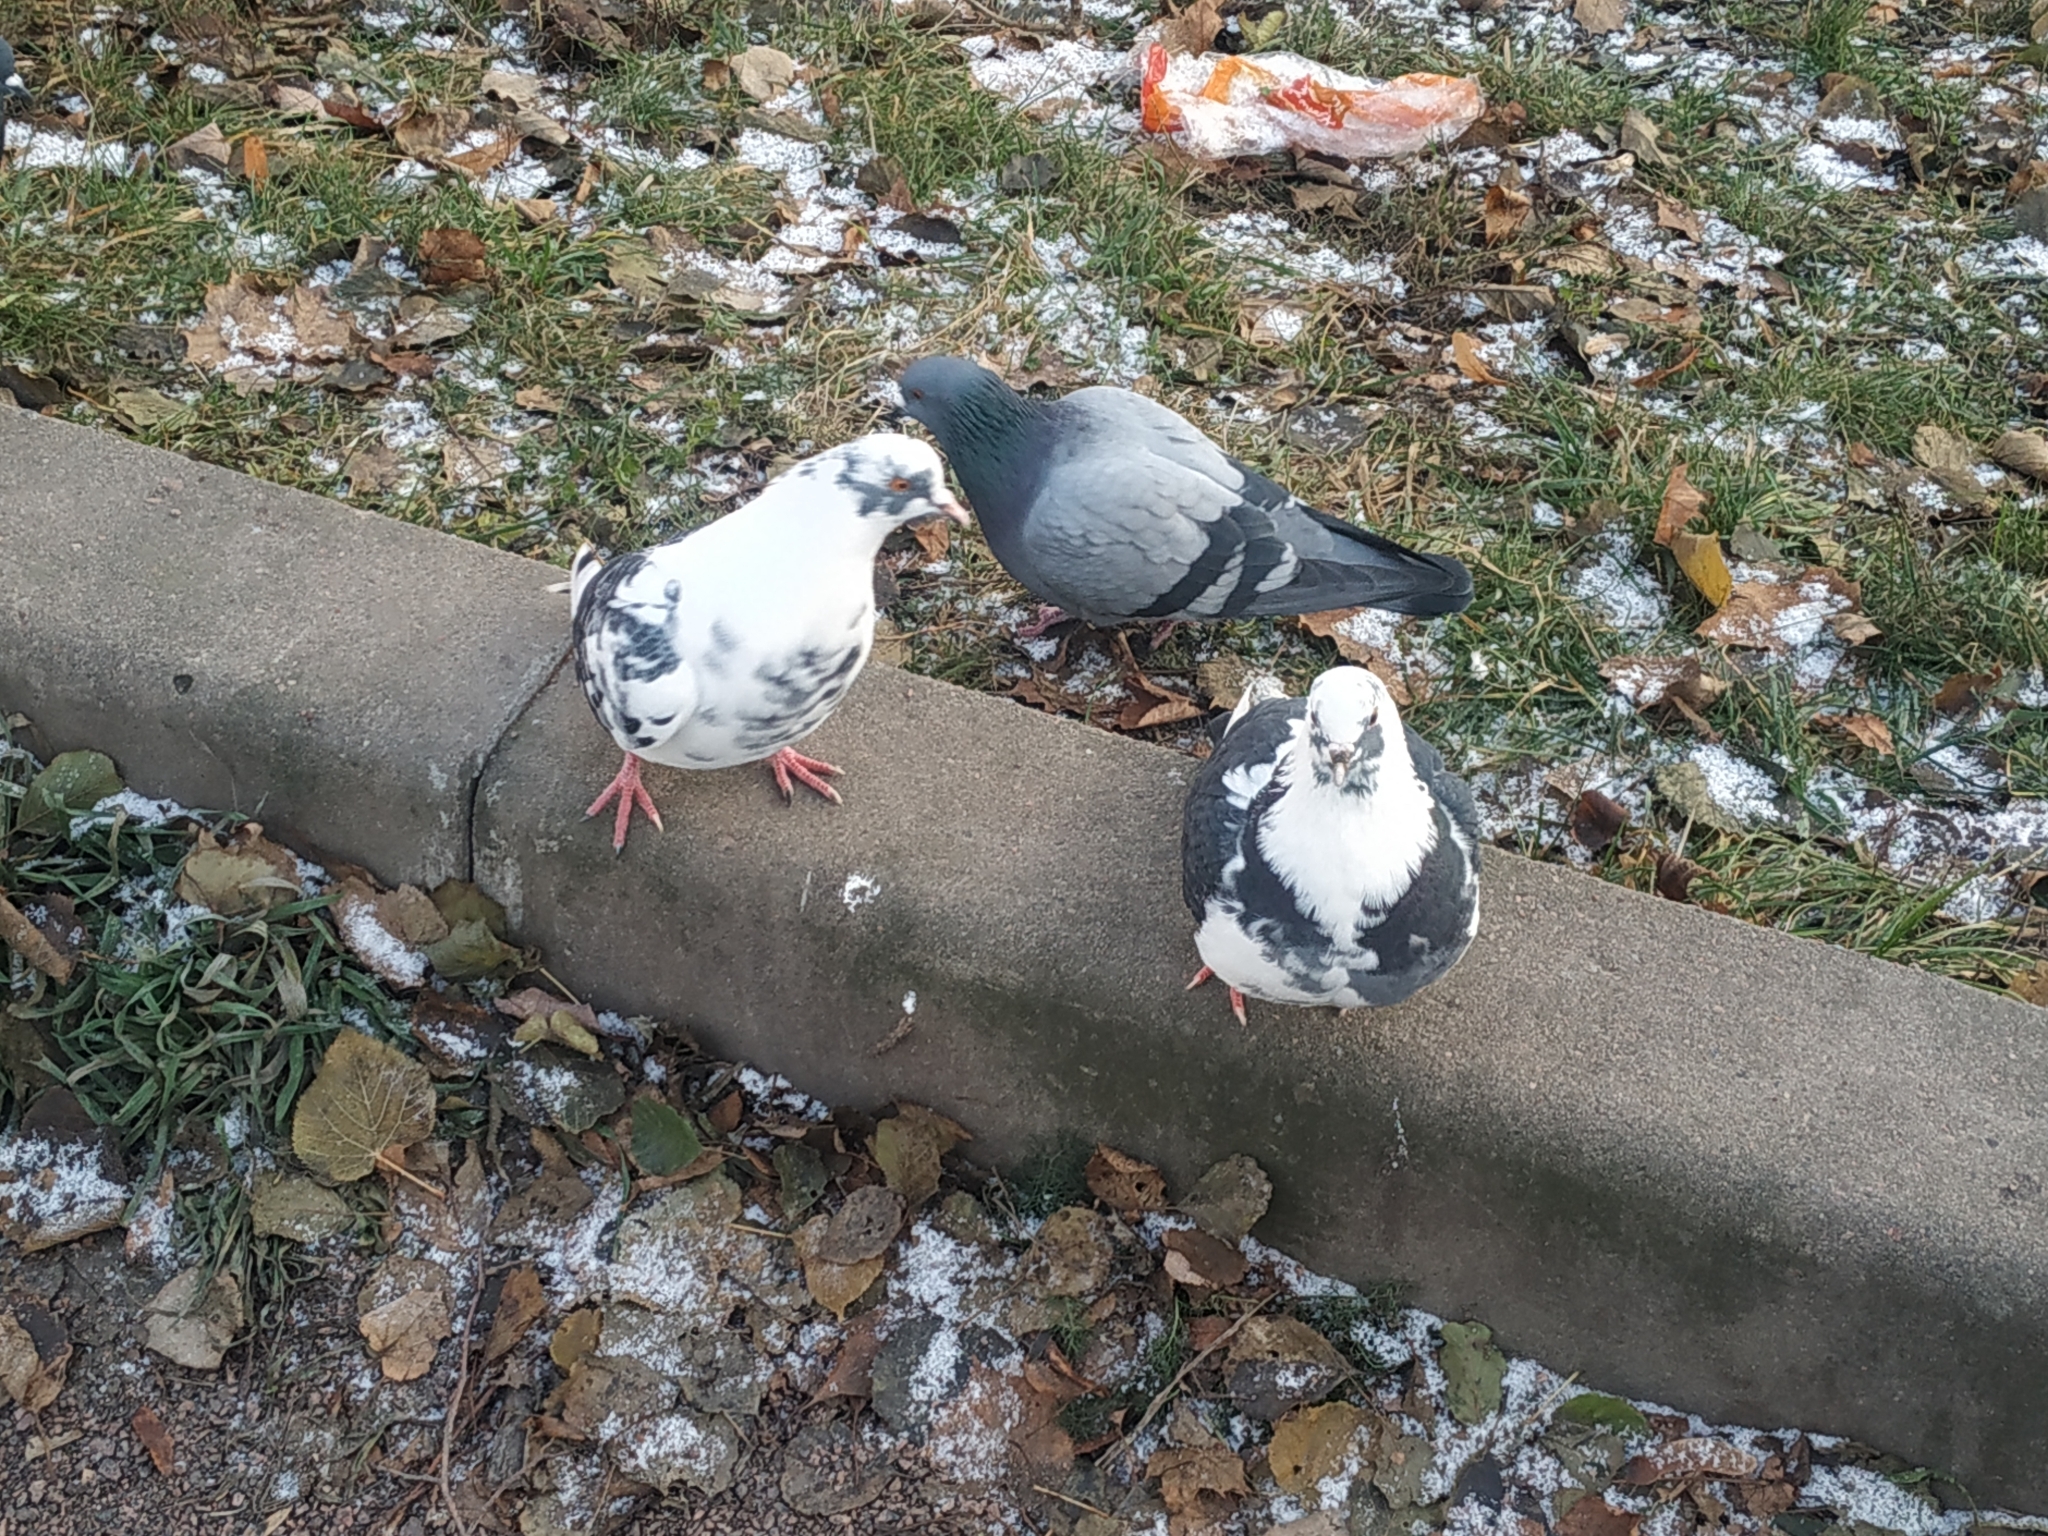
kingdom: Animalia
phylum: Chordata
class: Aves
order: Columbiformes
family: Columbidae
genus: Columba
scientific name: Columba livia
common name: Rock pigeon
